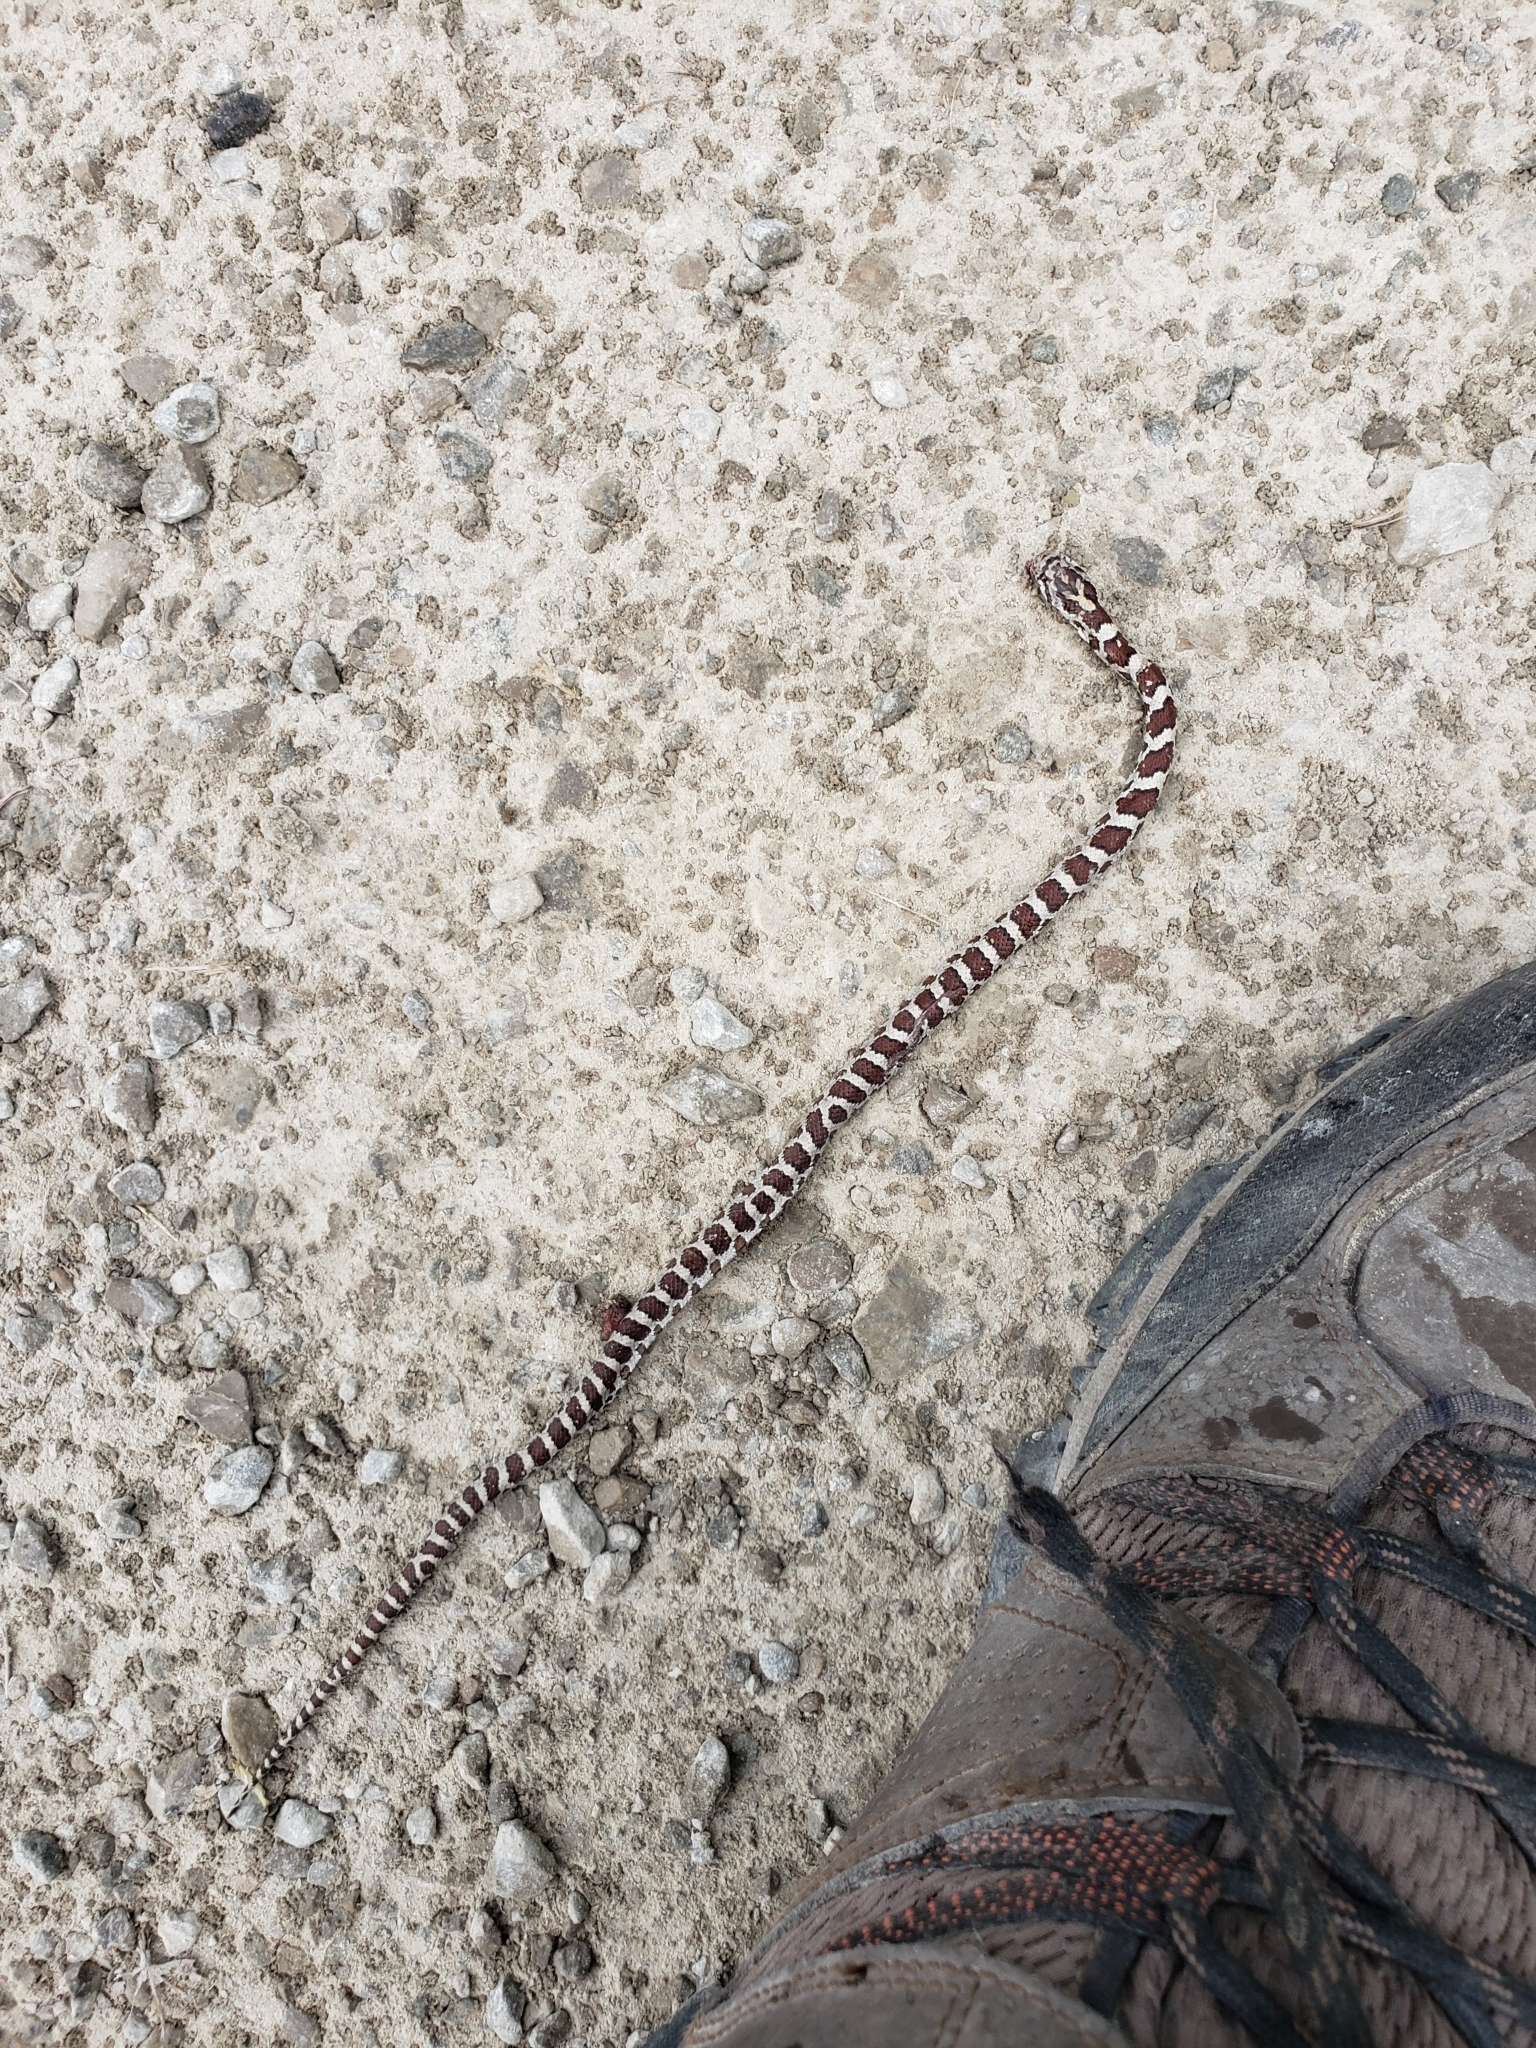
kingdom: Animalia
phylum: Chordata
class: Squamata
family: Colubridae
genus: Lampropeltis
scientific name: Lampropeltis triangulum
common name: Eastern milksnake
